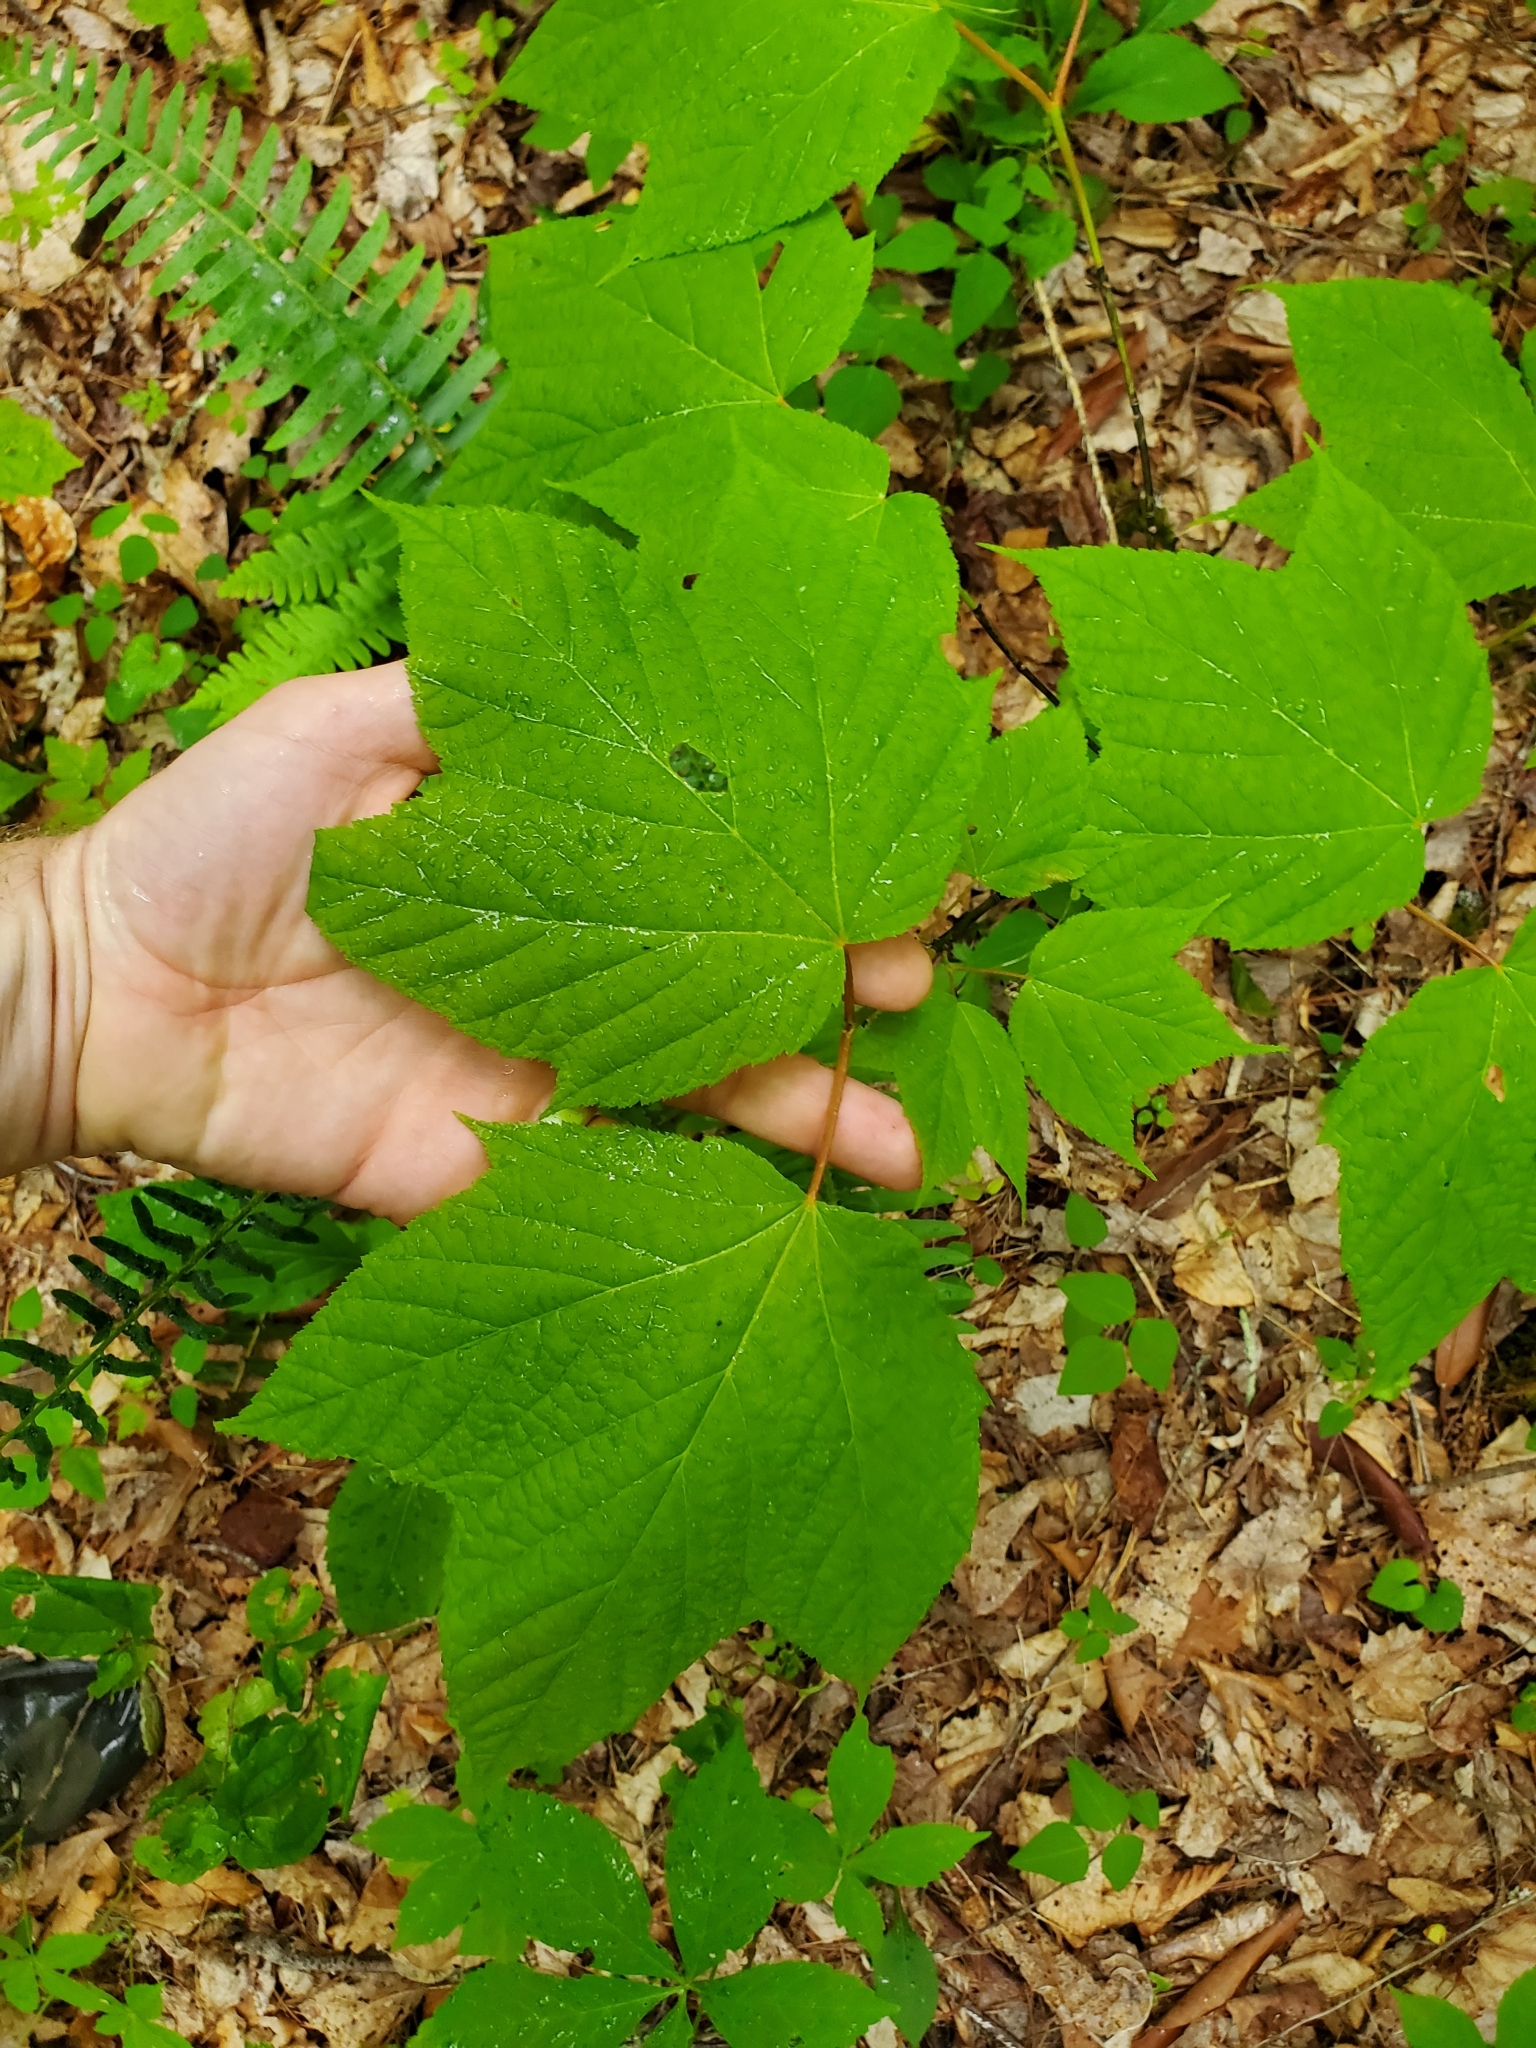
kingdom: Plantae
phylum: Tracheophyta
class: Magnoliopsida
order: Sapindales
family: Sapindaceae
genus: Acer
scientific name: Acer pensylvanicum
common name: Moosewood
